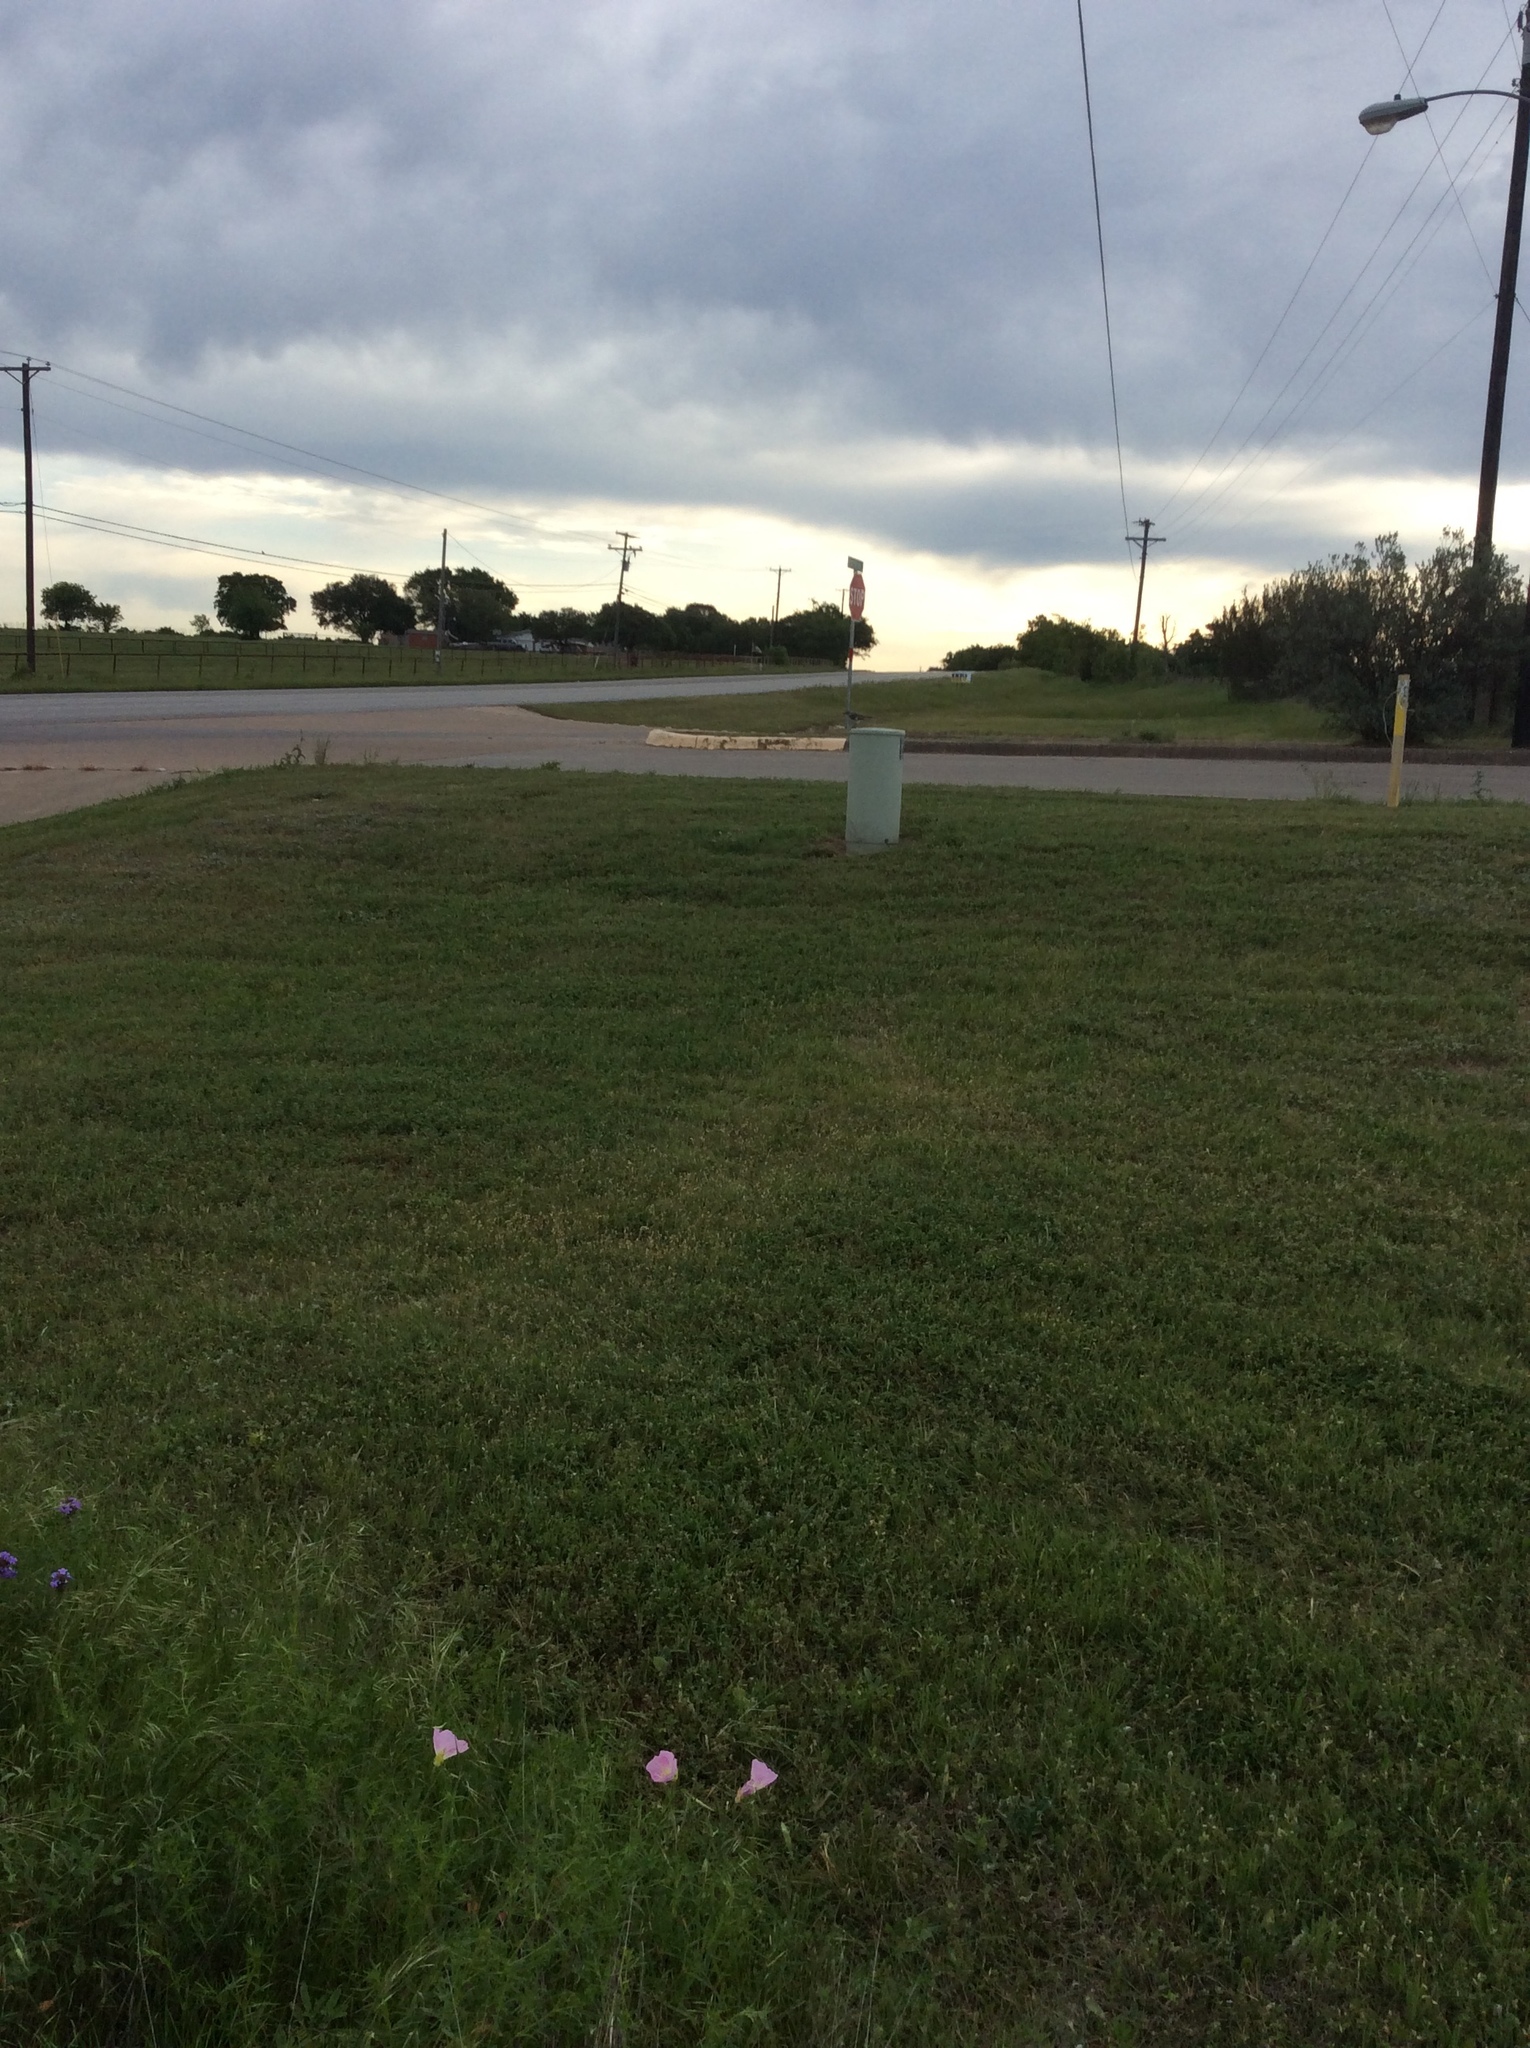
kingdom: Animalia
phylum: Chordata
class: Aves
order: Passeriformes
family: Mimidae
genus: Mimus
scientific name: Mimus polyglottos
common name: Northern mockingbird
